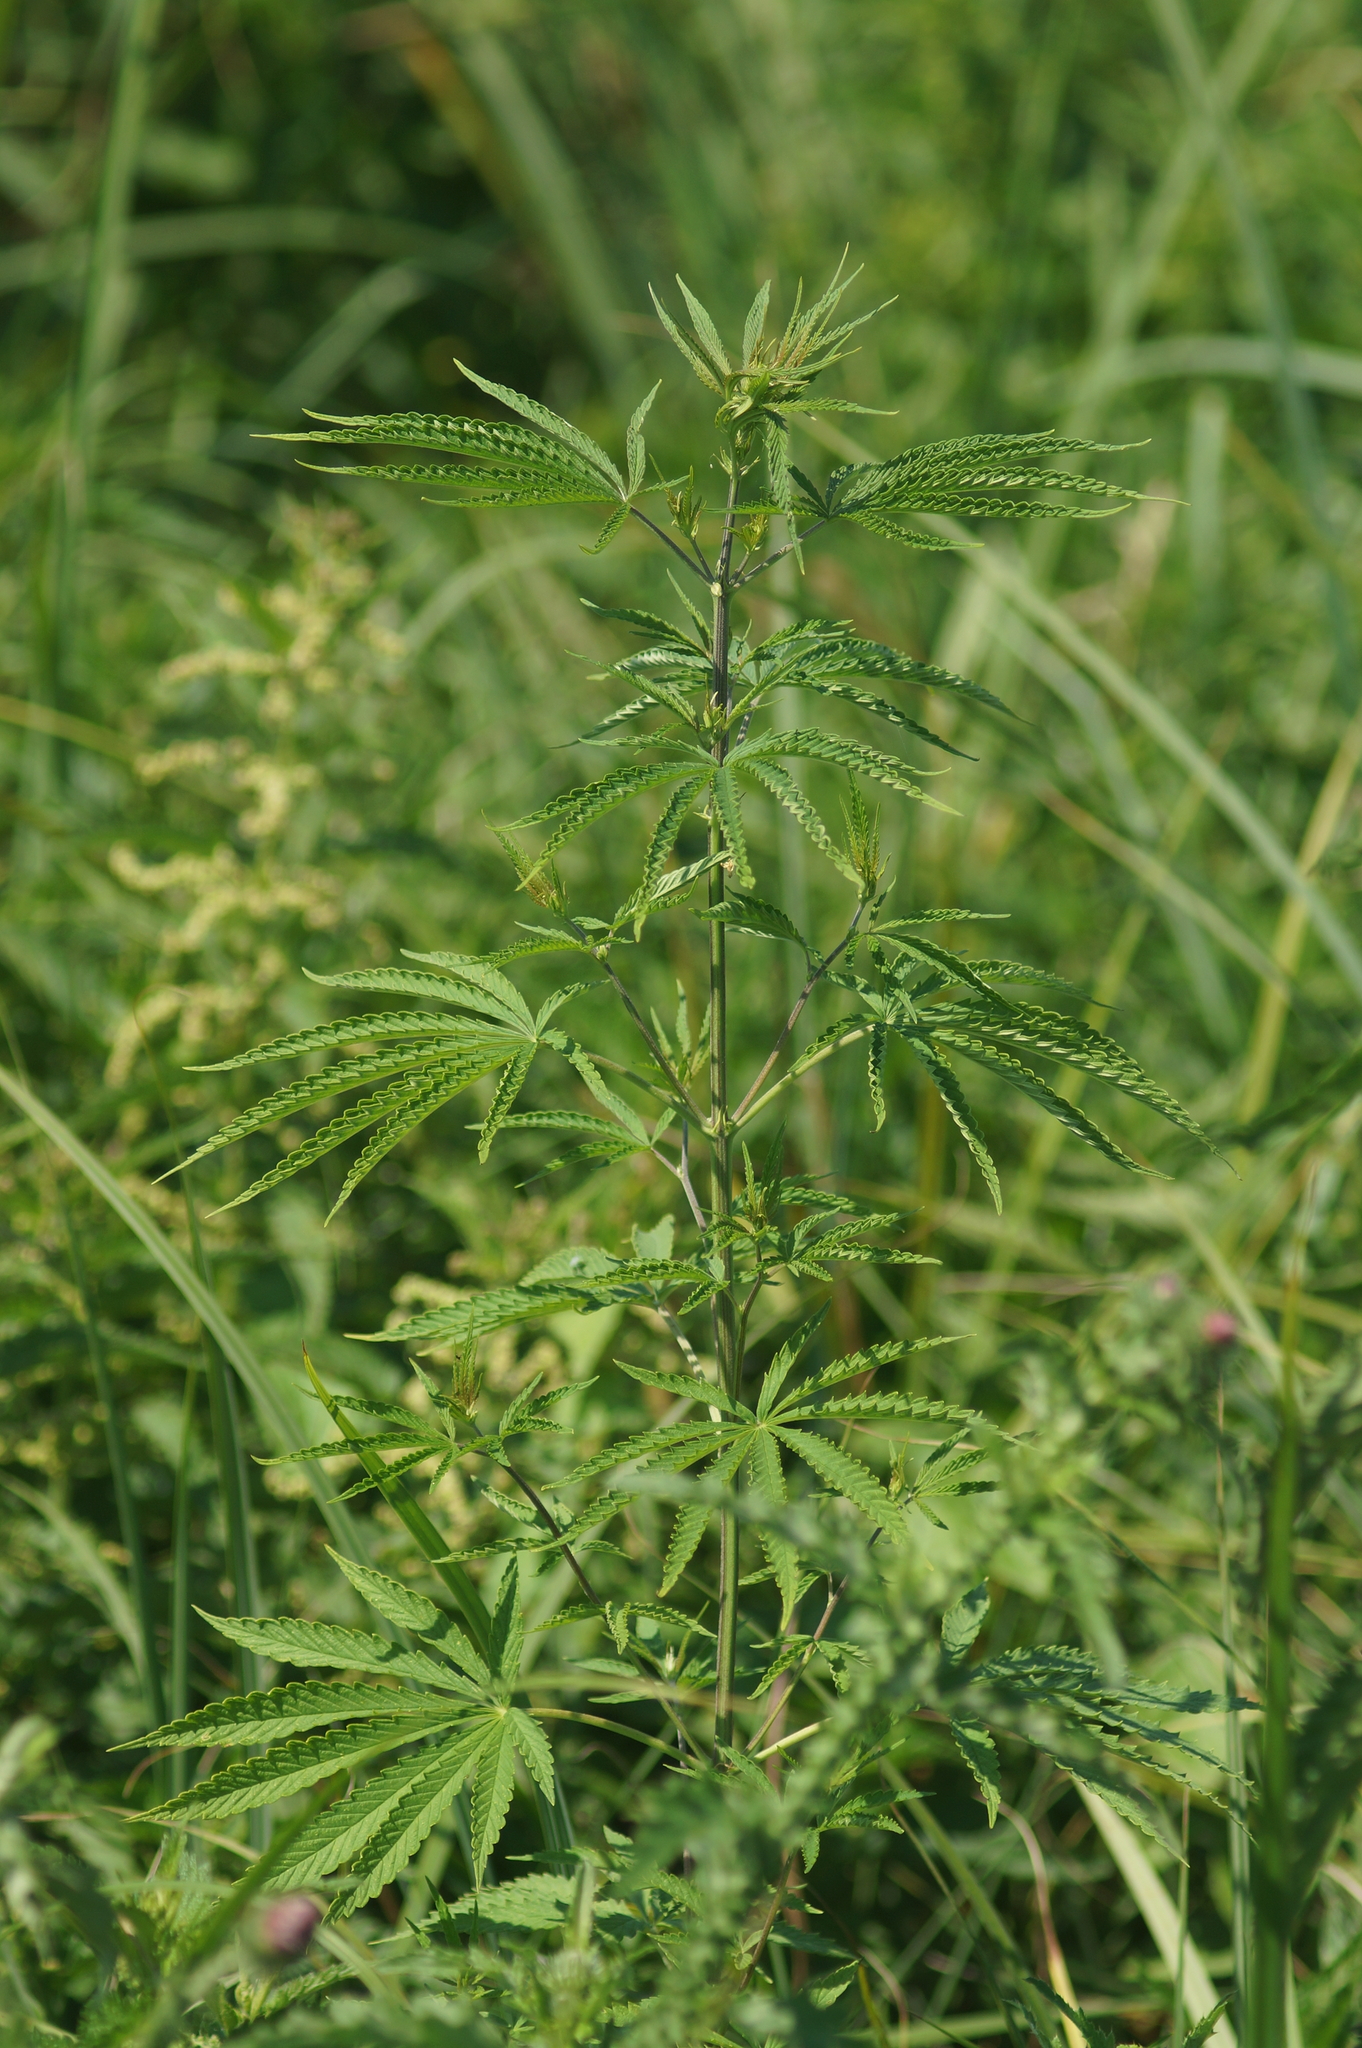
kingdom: Plantae
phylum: Tracheophyta
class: Magnoliopsida
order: Rosales
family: Cannabaceae
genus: Cannabis
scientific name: Cannabis sativa
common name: Hemp
